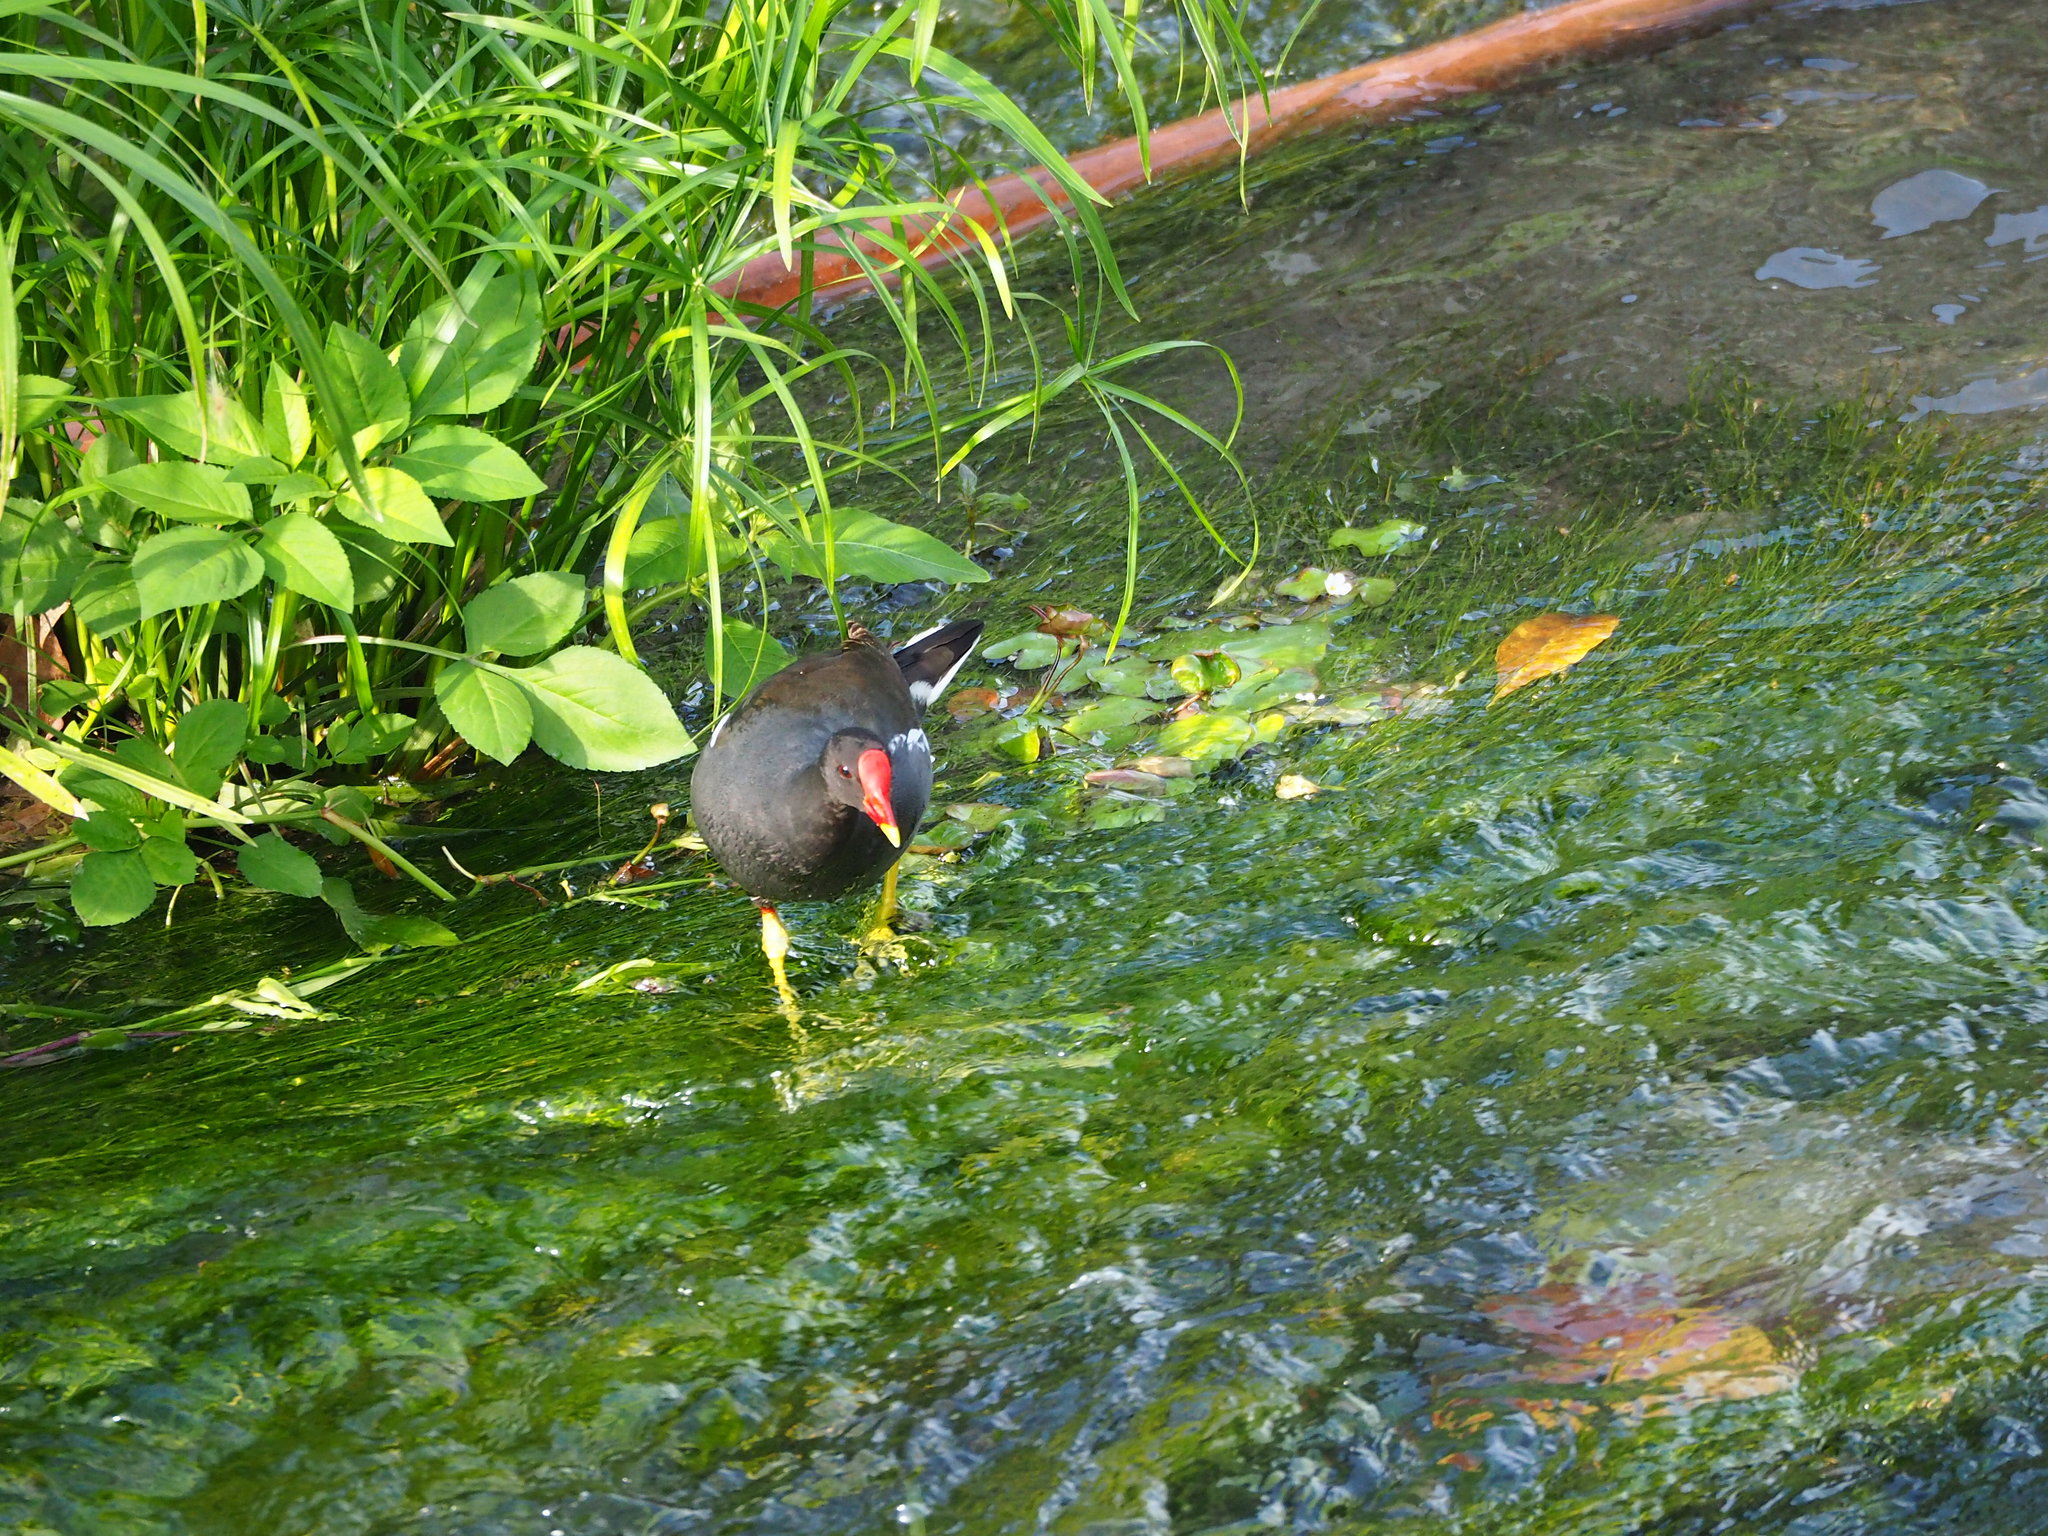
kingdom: Animalia
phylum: Chordata
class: Aves
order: Gruiformes
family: Rallidae
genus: Gallinula
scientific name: Gallinula chloropus
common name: Common moorhen
